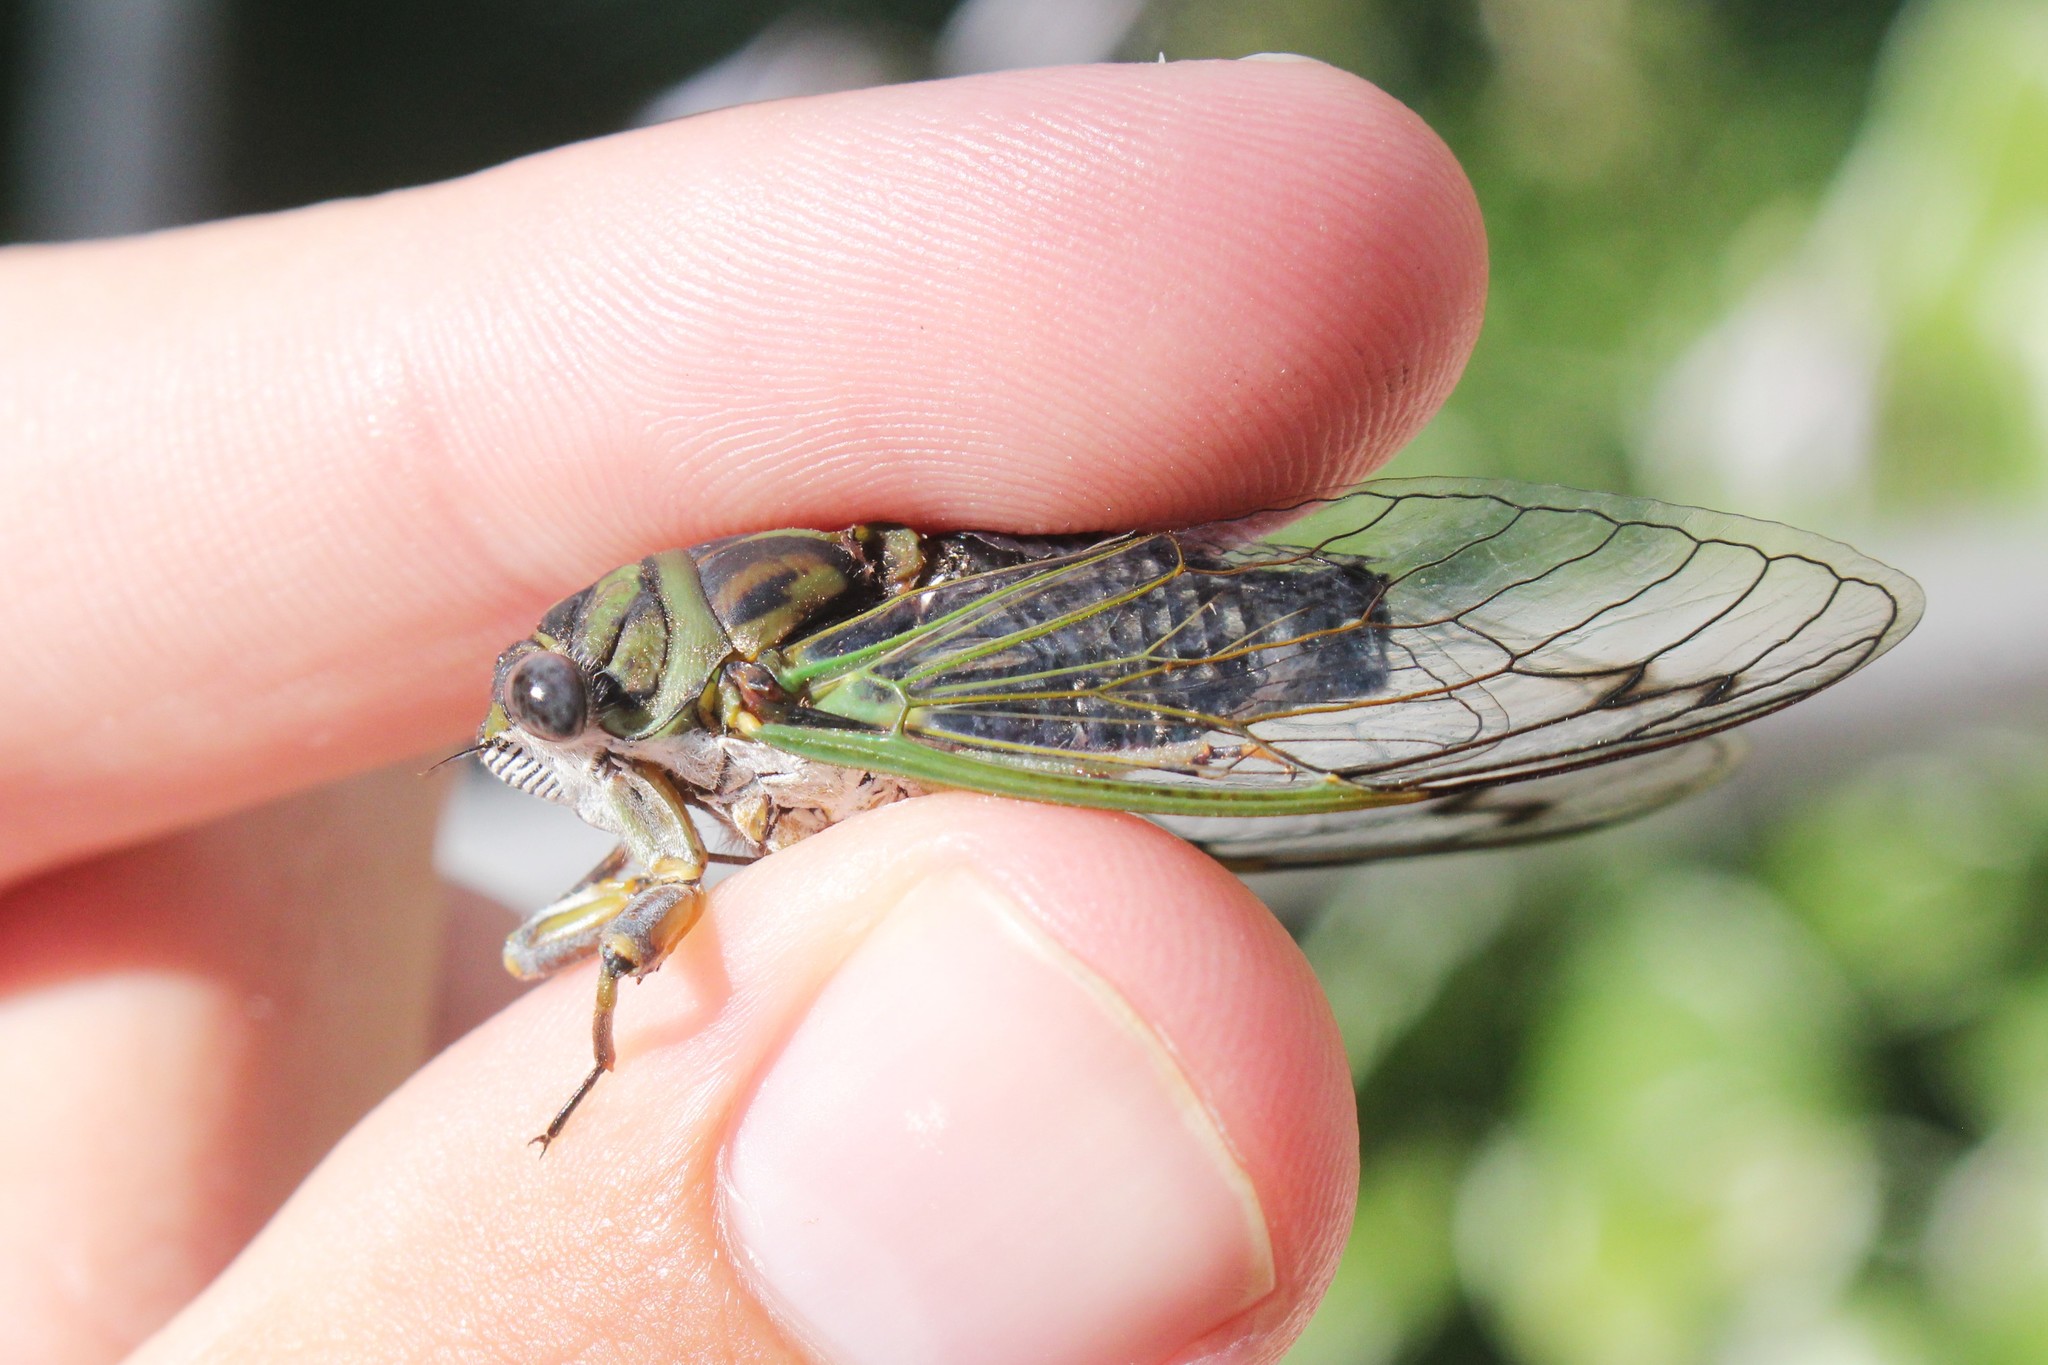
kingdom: Animalia
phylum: Arthropoda
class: Insecta
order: Hemiptera
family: Cicadidae
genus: Neotibicen
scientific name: Neotibicen canicularis
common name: God-day cicada
